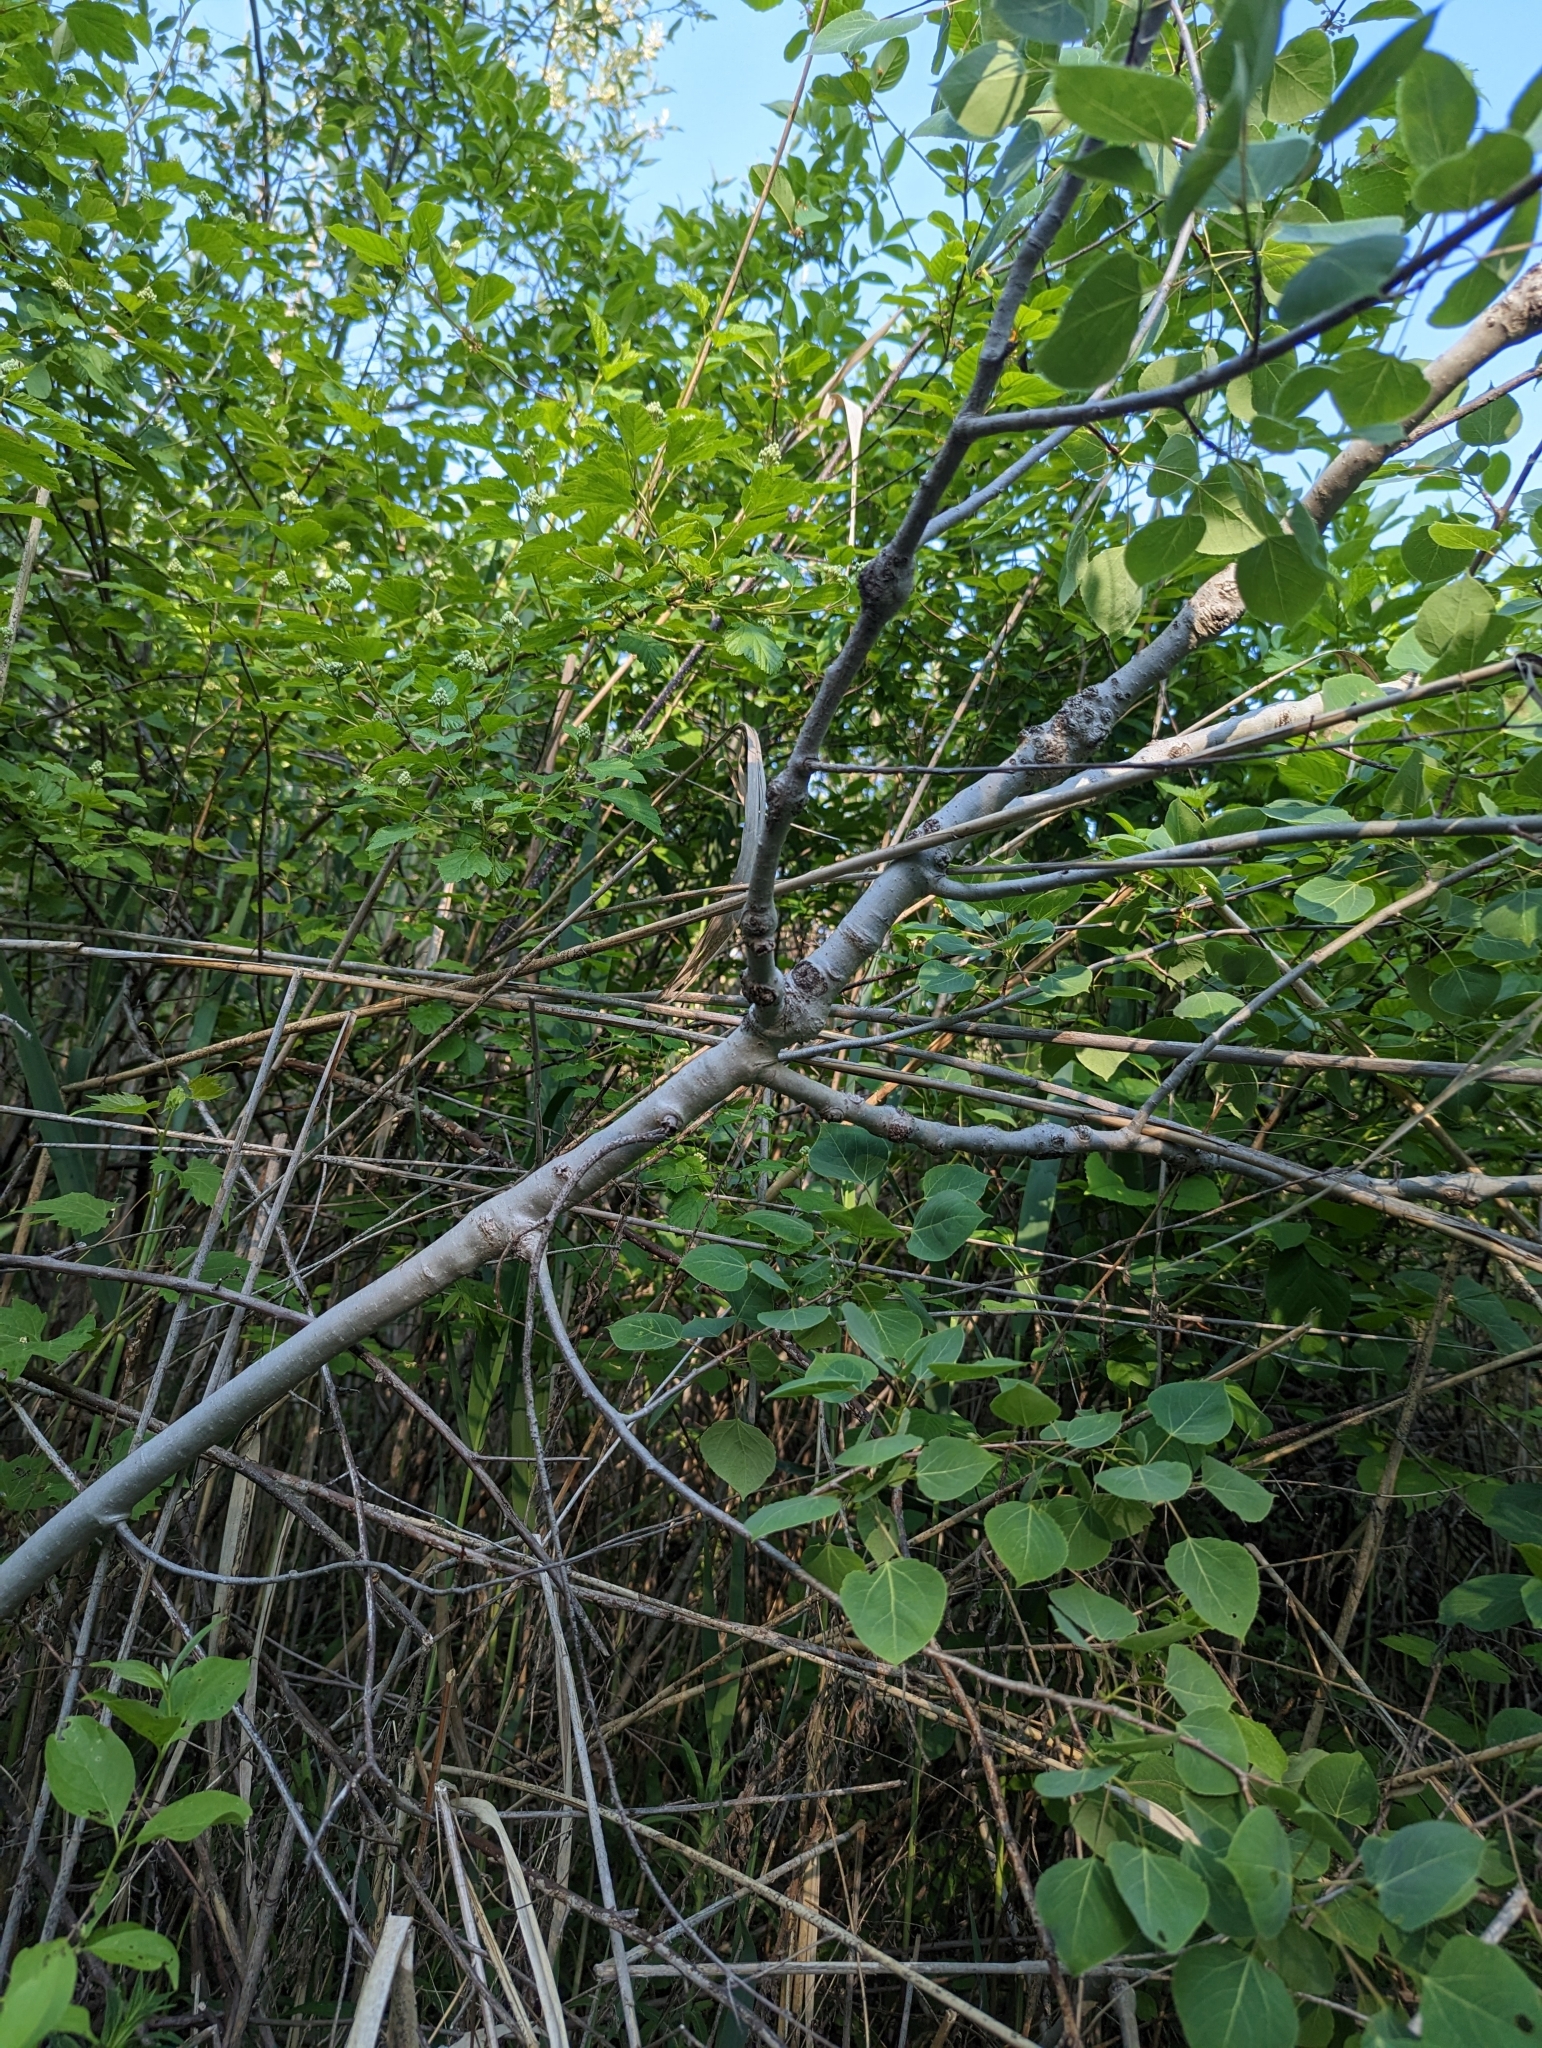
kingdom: Plantae
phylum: Tracheophyta
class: Magnoliopsida
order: Malpighiales
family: Salicaceae
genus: Populus
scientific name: Populus tremuloides
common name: Quaking aspen
